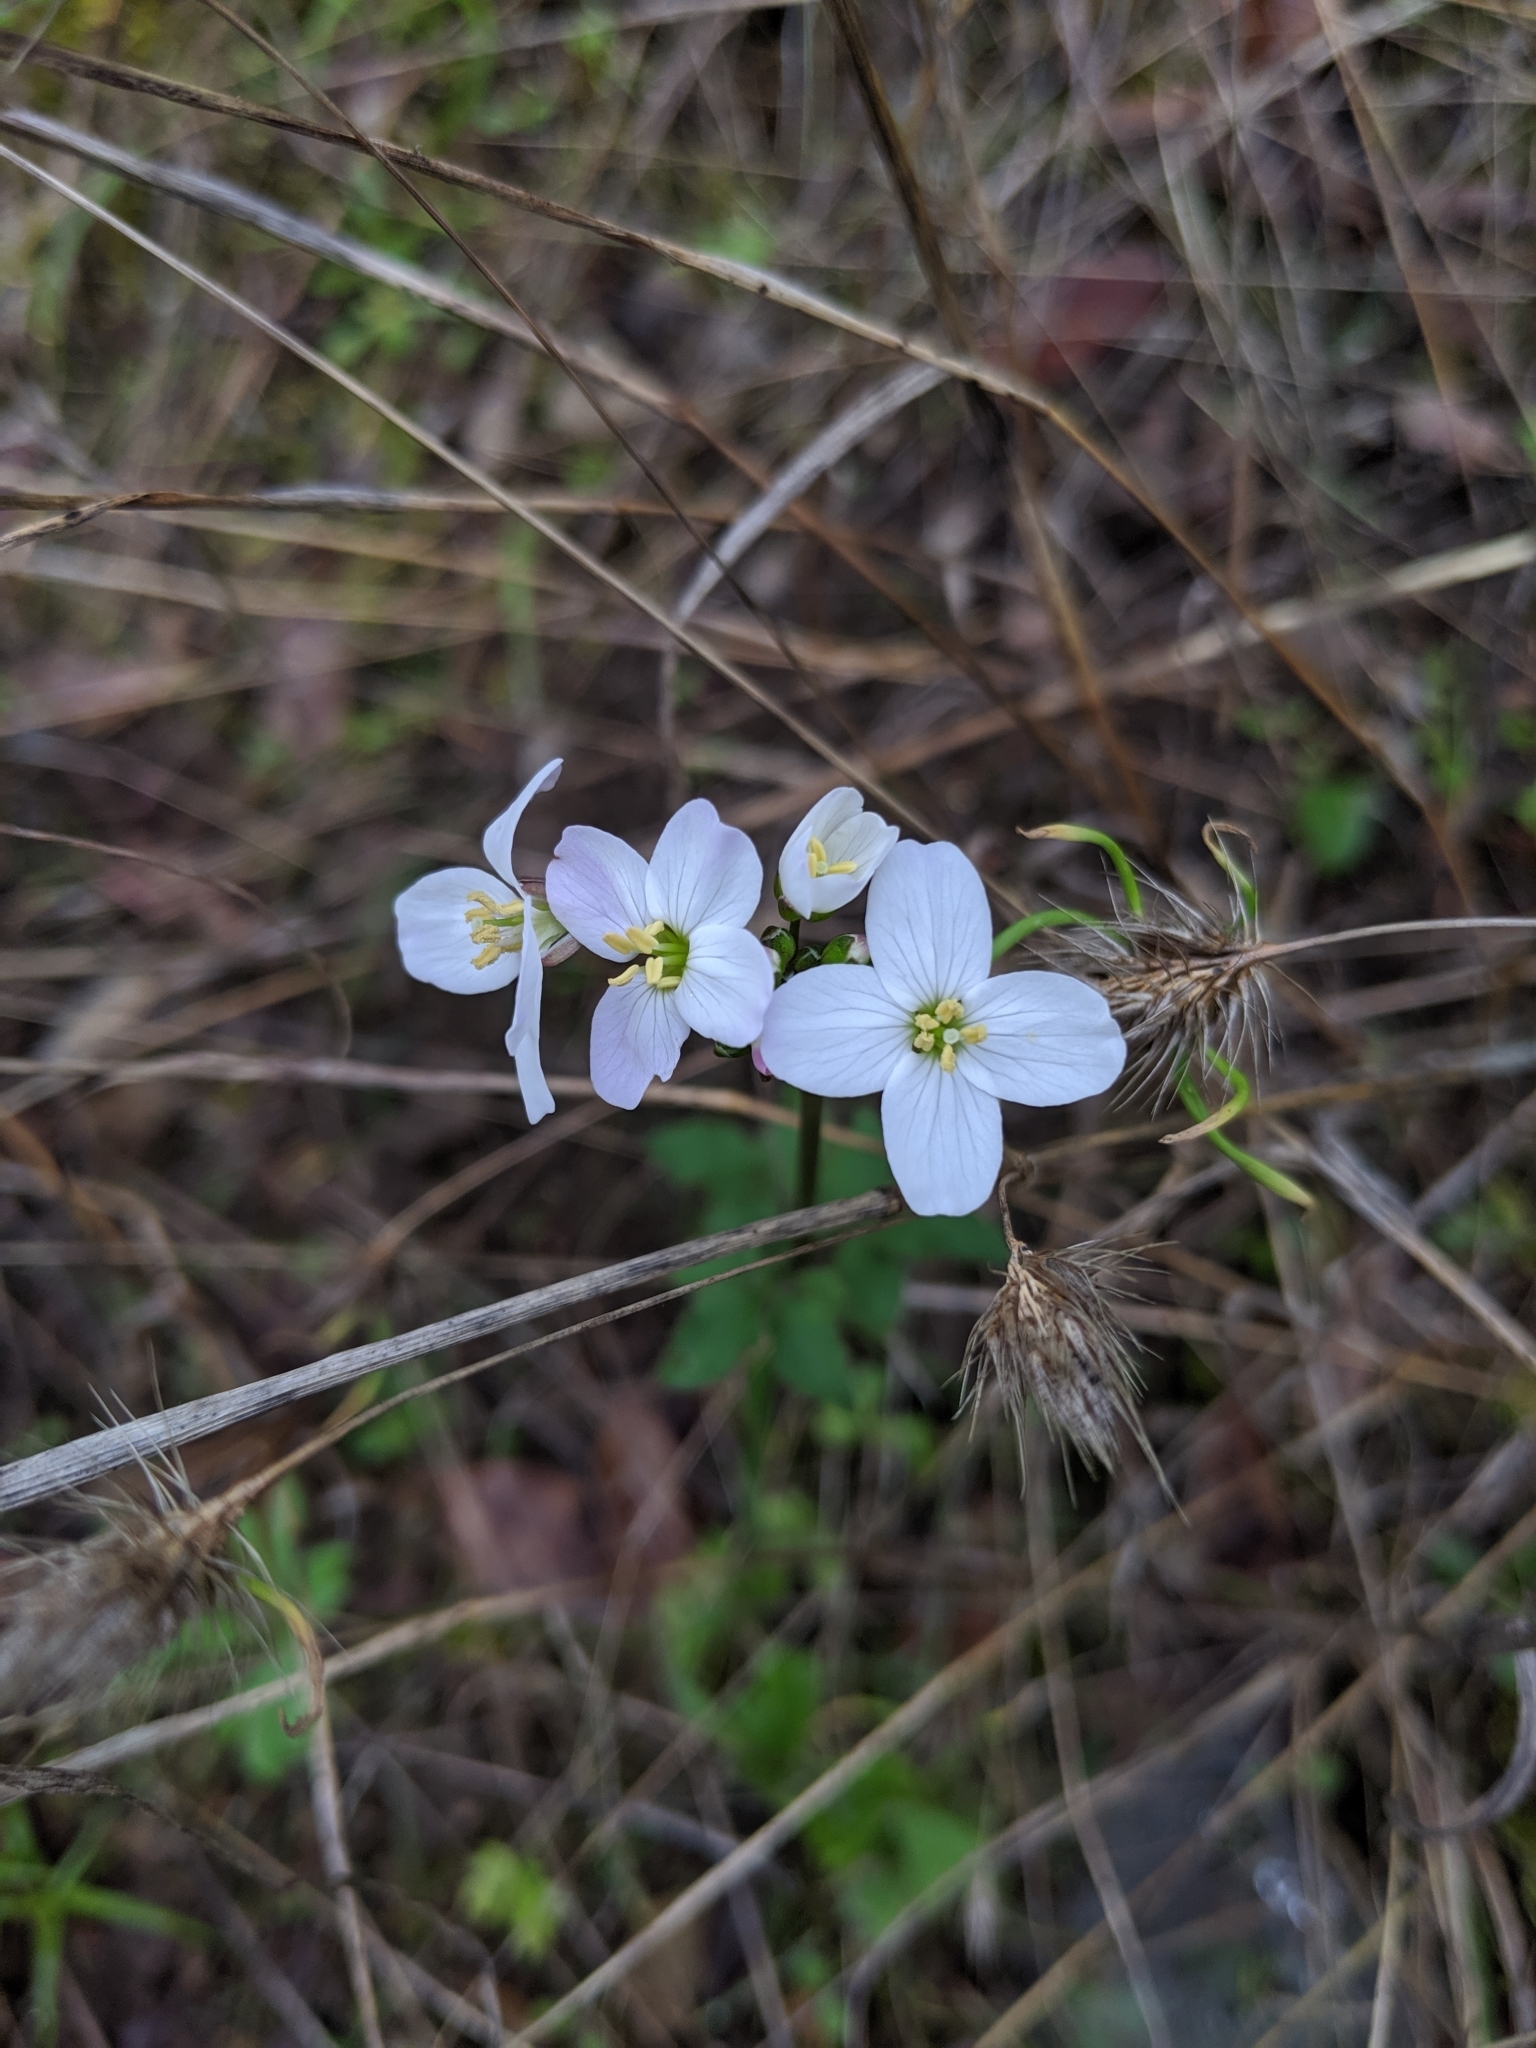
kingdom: Plantae
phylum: Tracheophyta
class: Magnoliopsida
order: Brassicales
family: Brassicaceae
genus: Cardamine
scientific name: Cardamine californica
